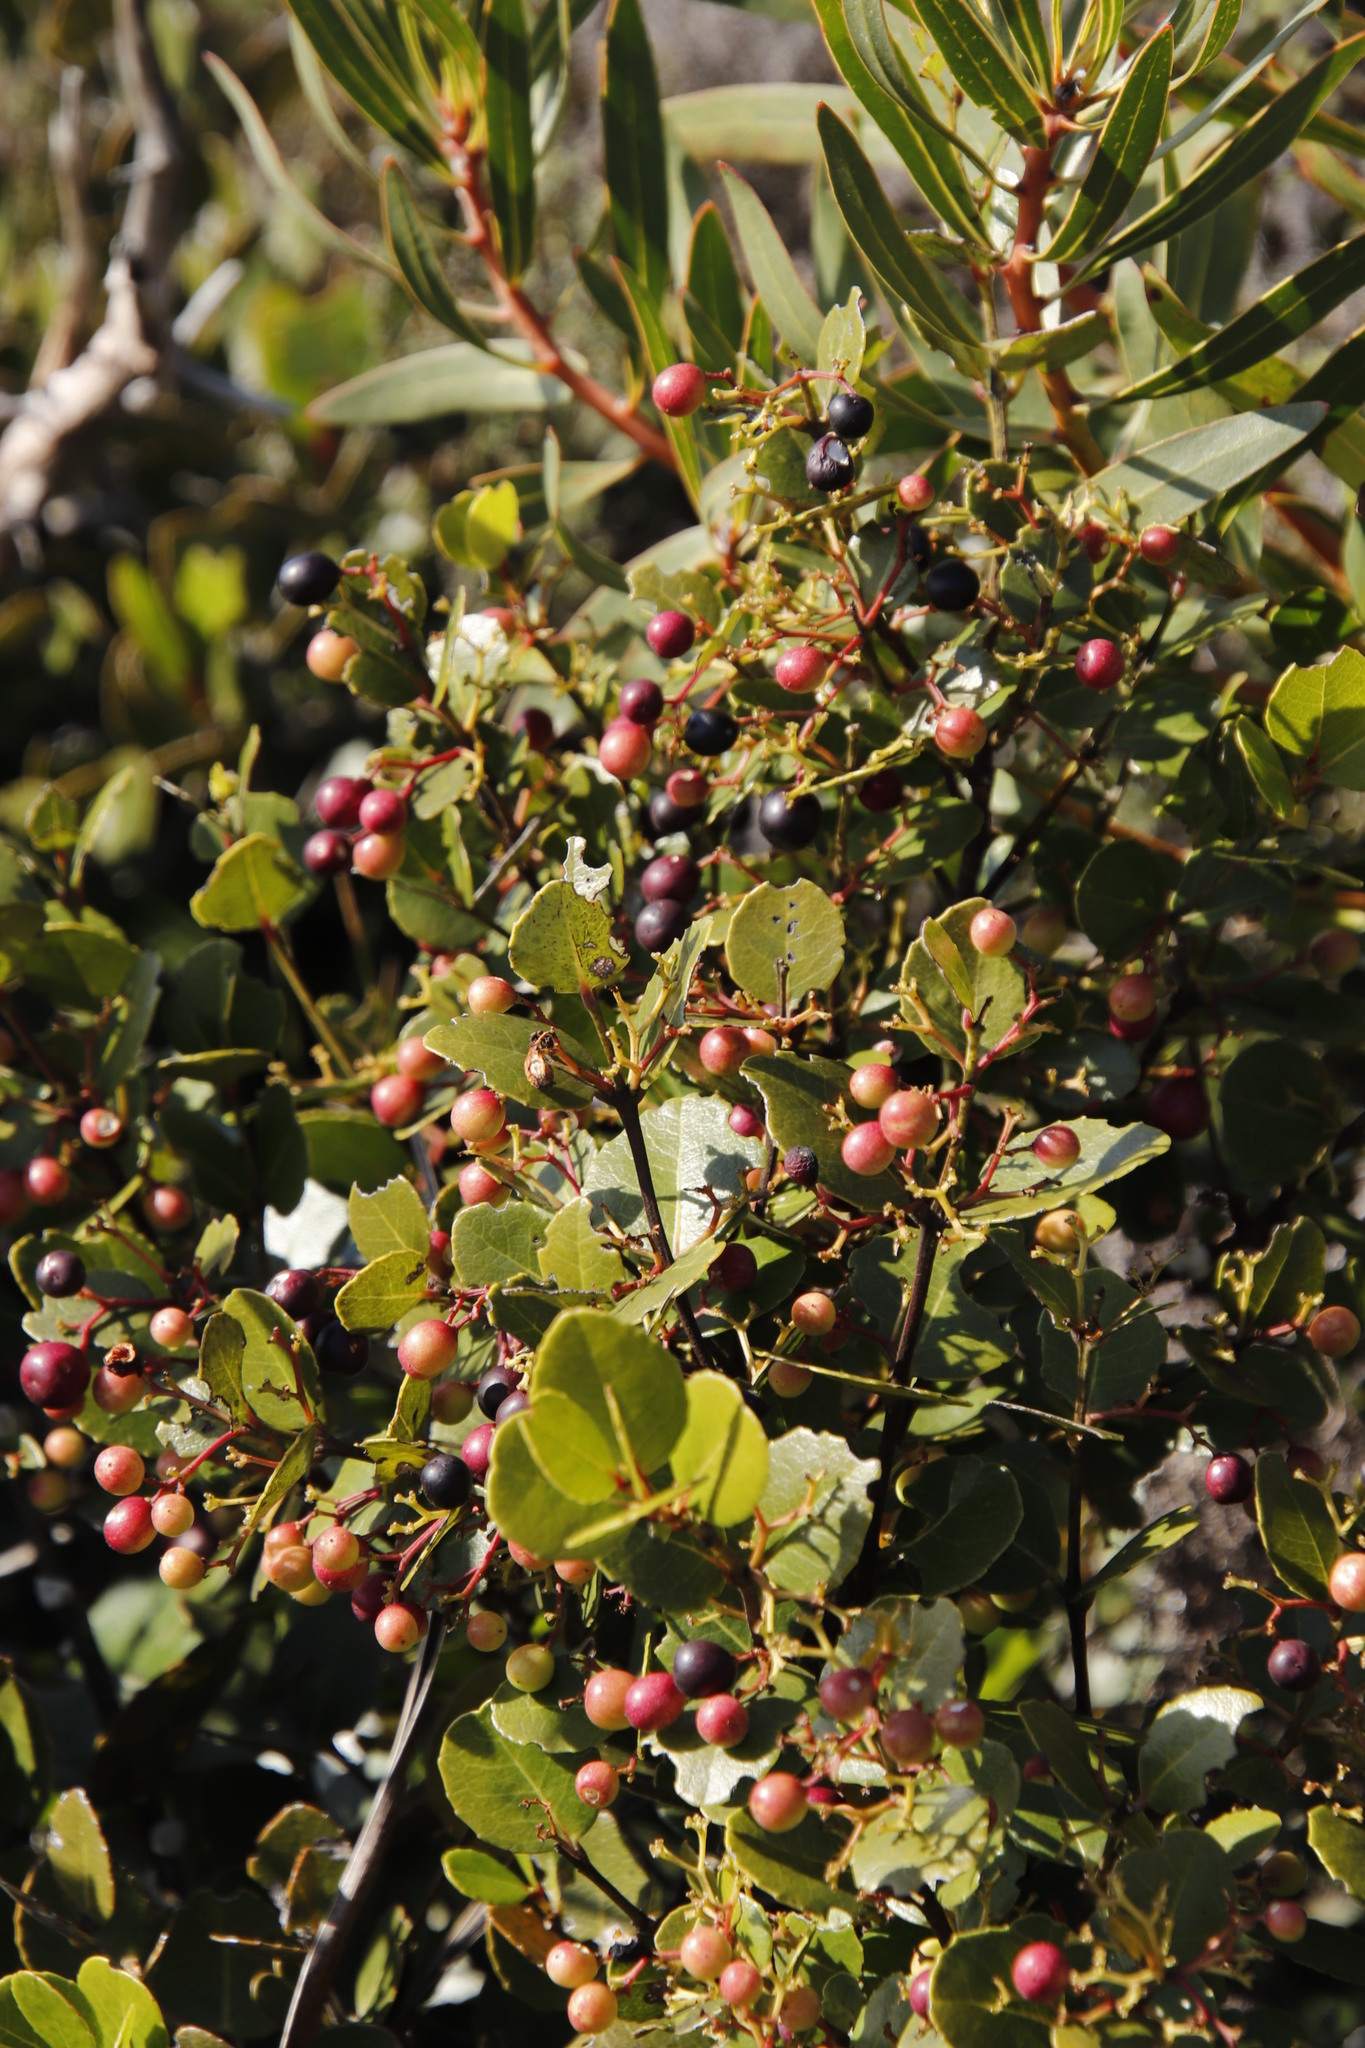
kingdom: Plantae
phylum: Tracheophyta
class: Magnoliopsida
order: Celastrales
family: Celastraceae
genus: Cassine
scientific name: Cassine peragua
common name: Cape saffron
